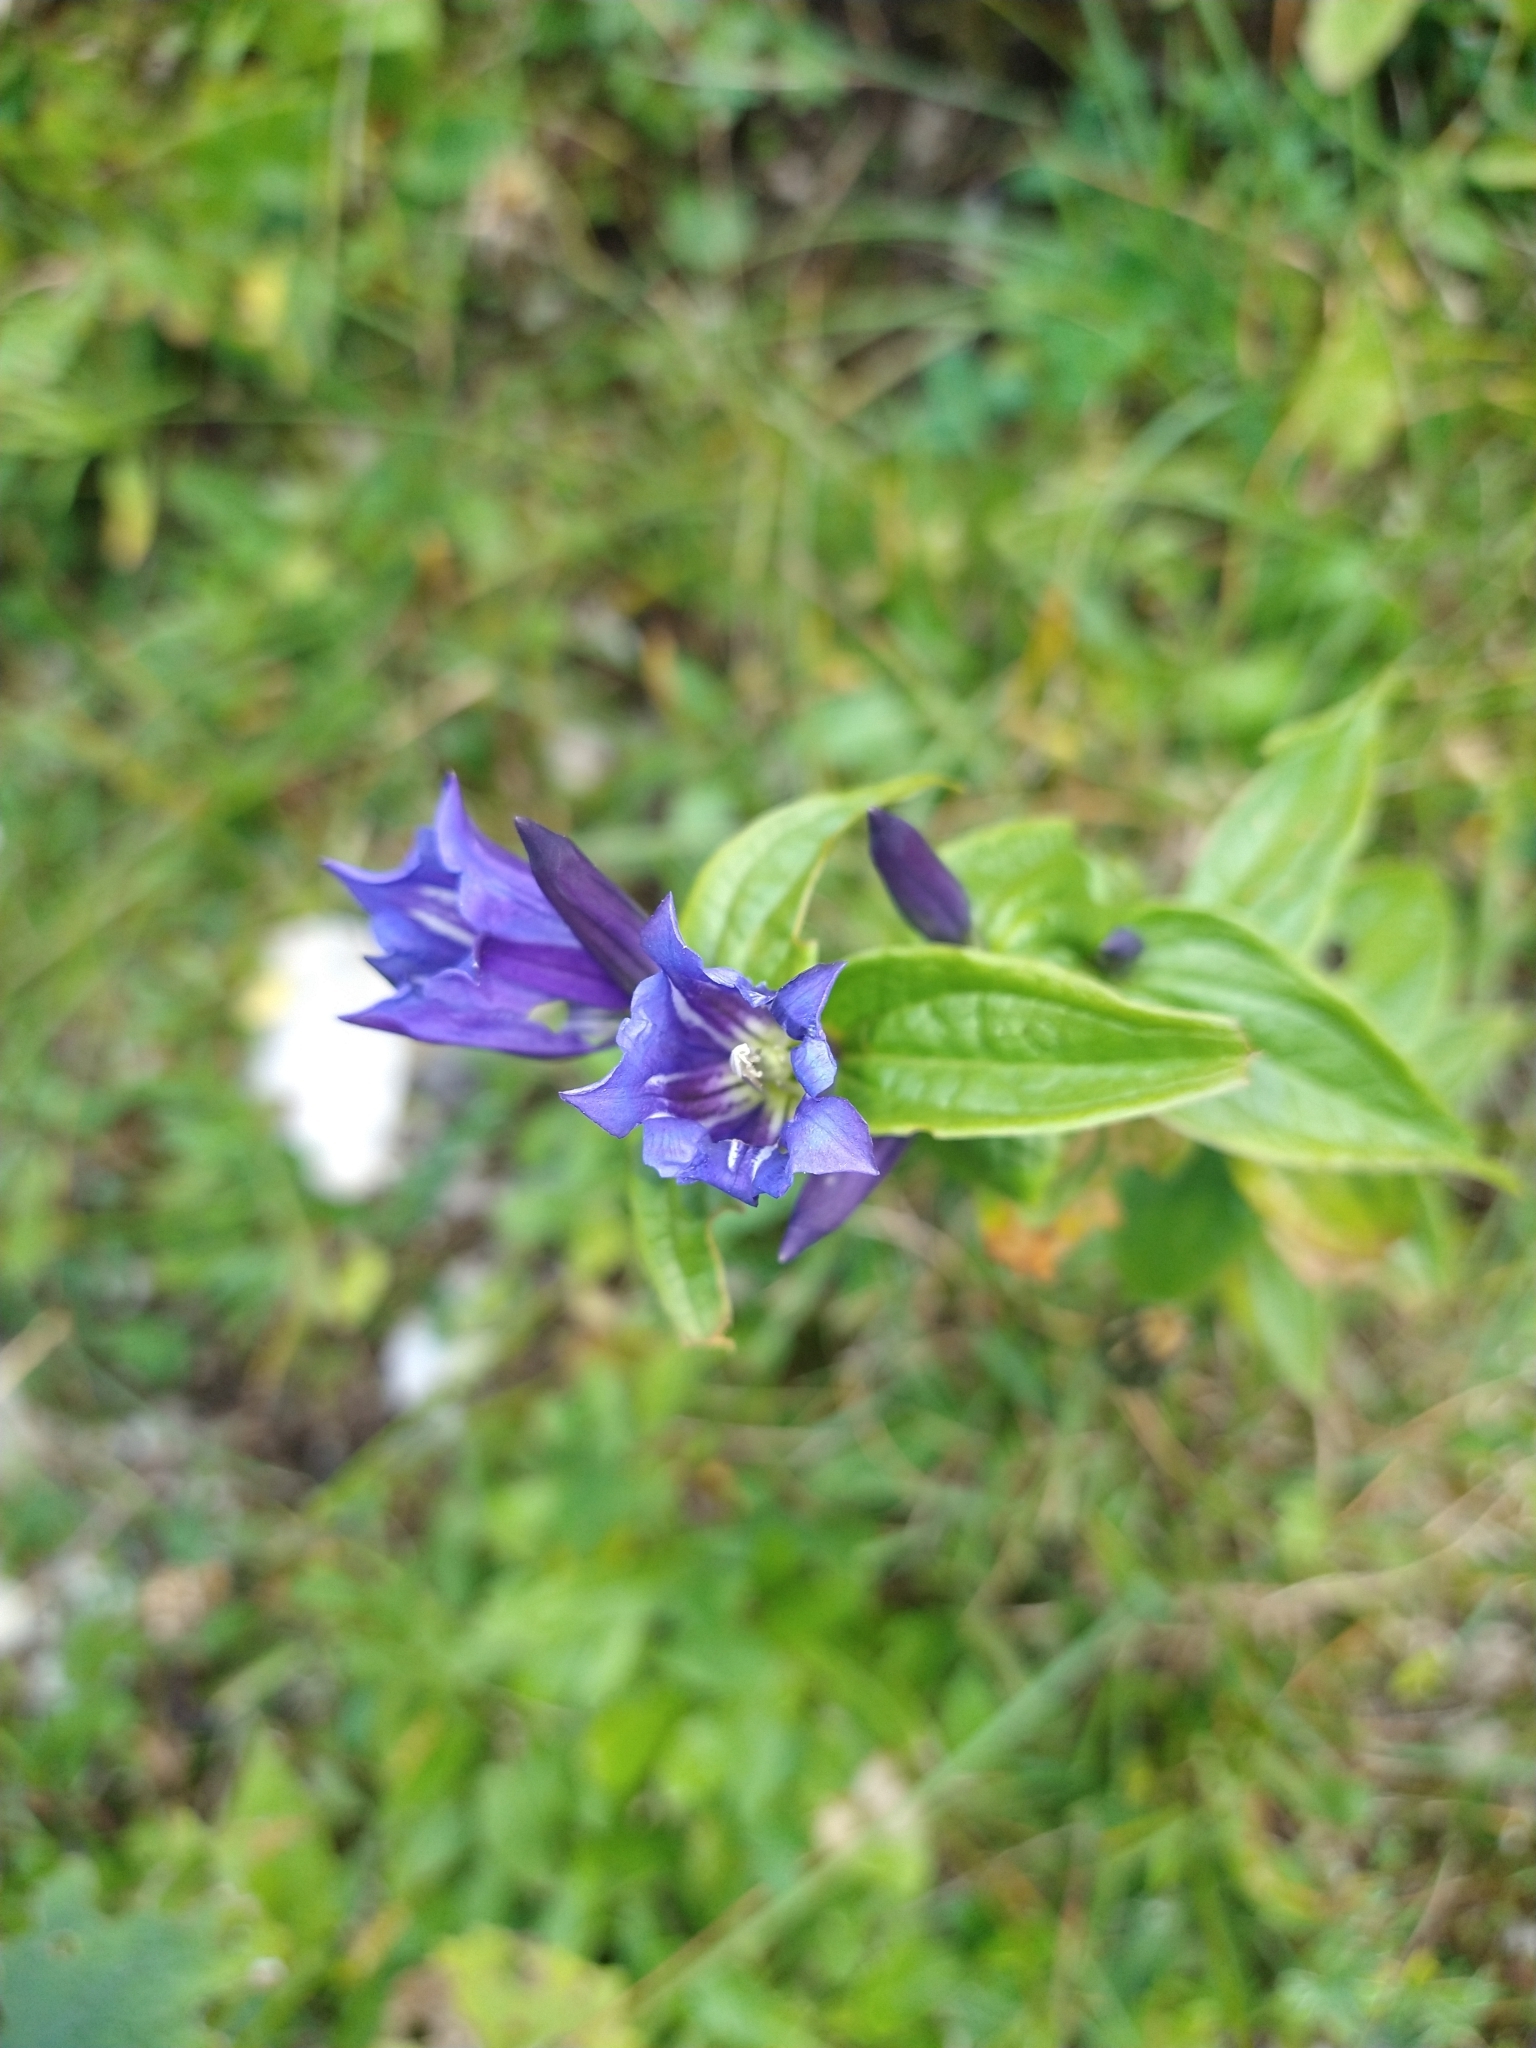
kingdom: Plantae
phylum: Tracheophyta
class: Magnoliopsida
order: Gentianales
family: Gentianaceae
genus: Gentiana
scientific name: Gentiana asclepiadea
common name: Willow gentian
